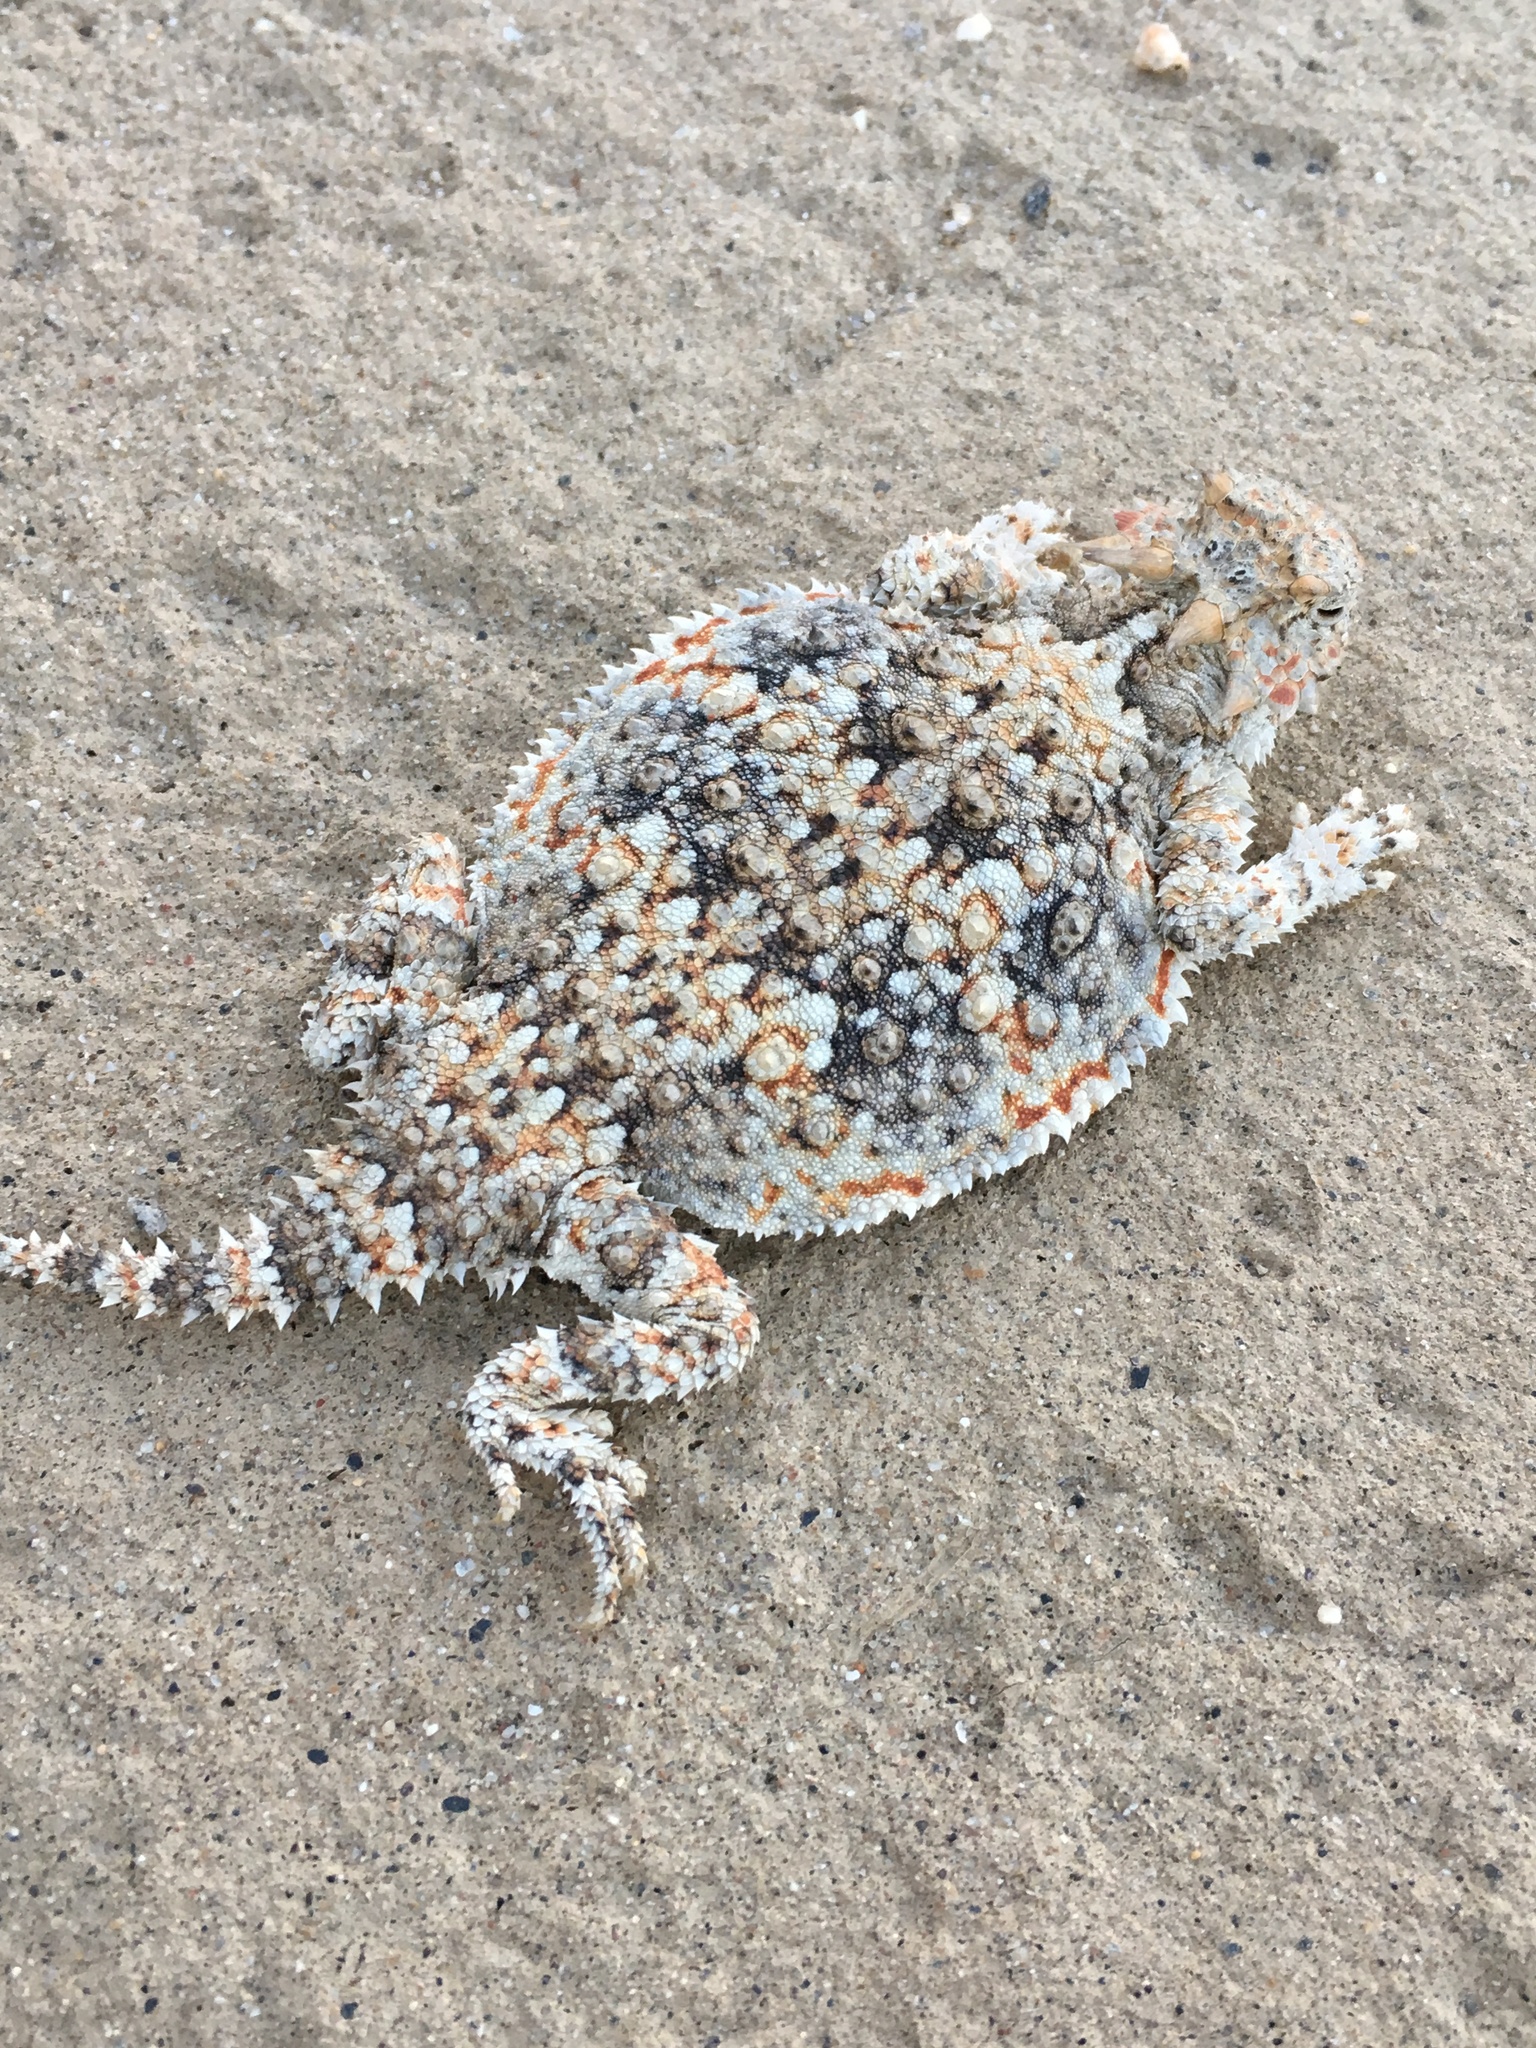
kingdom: Animalia
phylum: Chordata
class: Squamata
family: Phrynosomatidae
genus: Phrynosoma
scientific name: Phrynosoma platyrhinos
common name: Desert horned lizard
